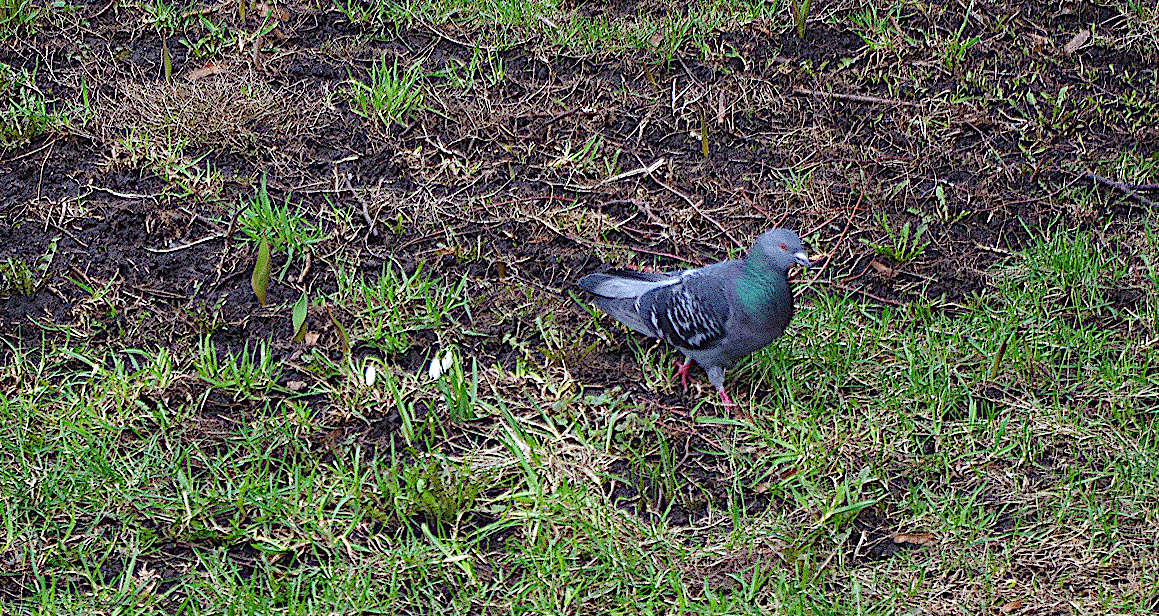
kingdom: Animalia
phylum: Chordata
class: Aves
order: Columbiformes
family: Columbidae
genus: Columba
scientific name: Columba livia
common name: Rock pigeon
